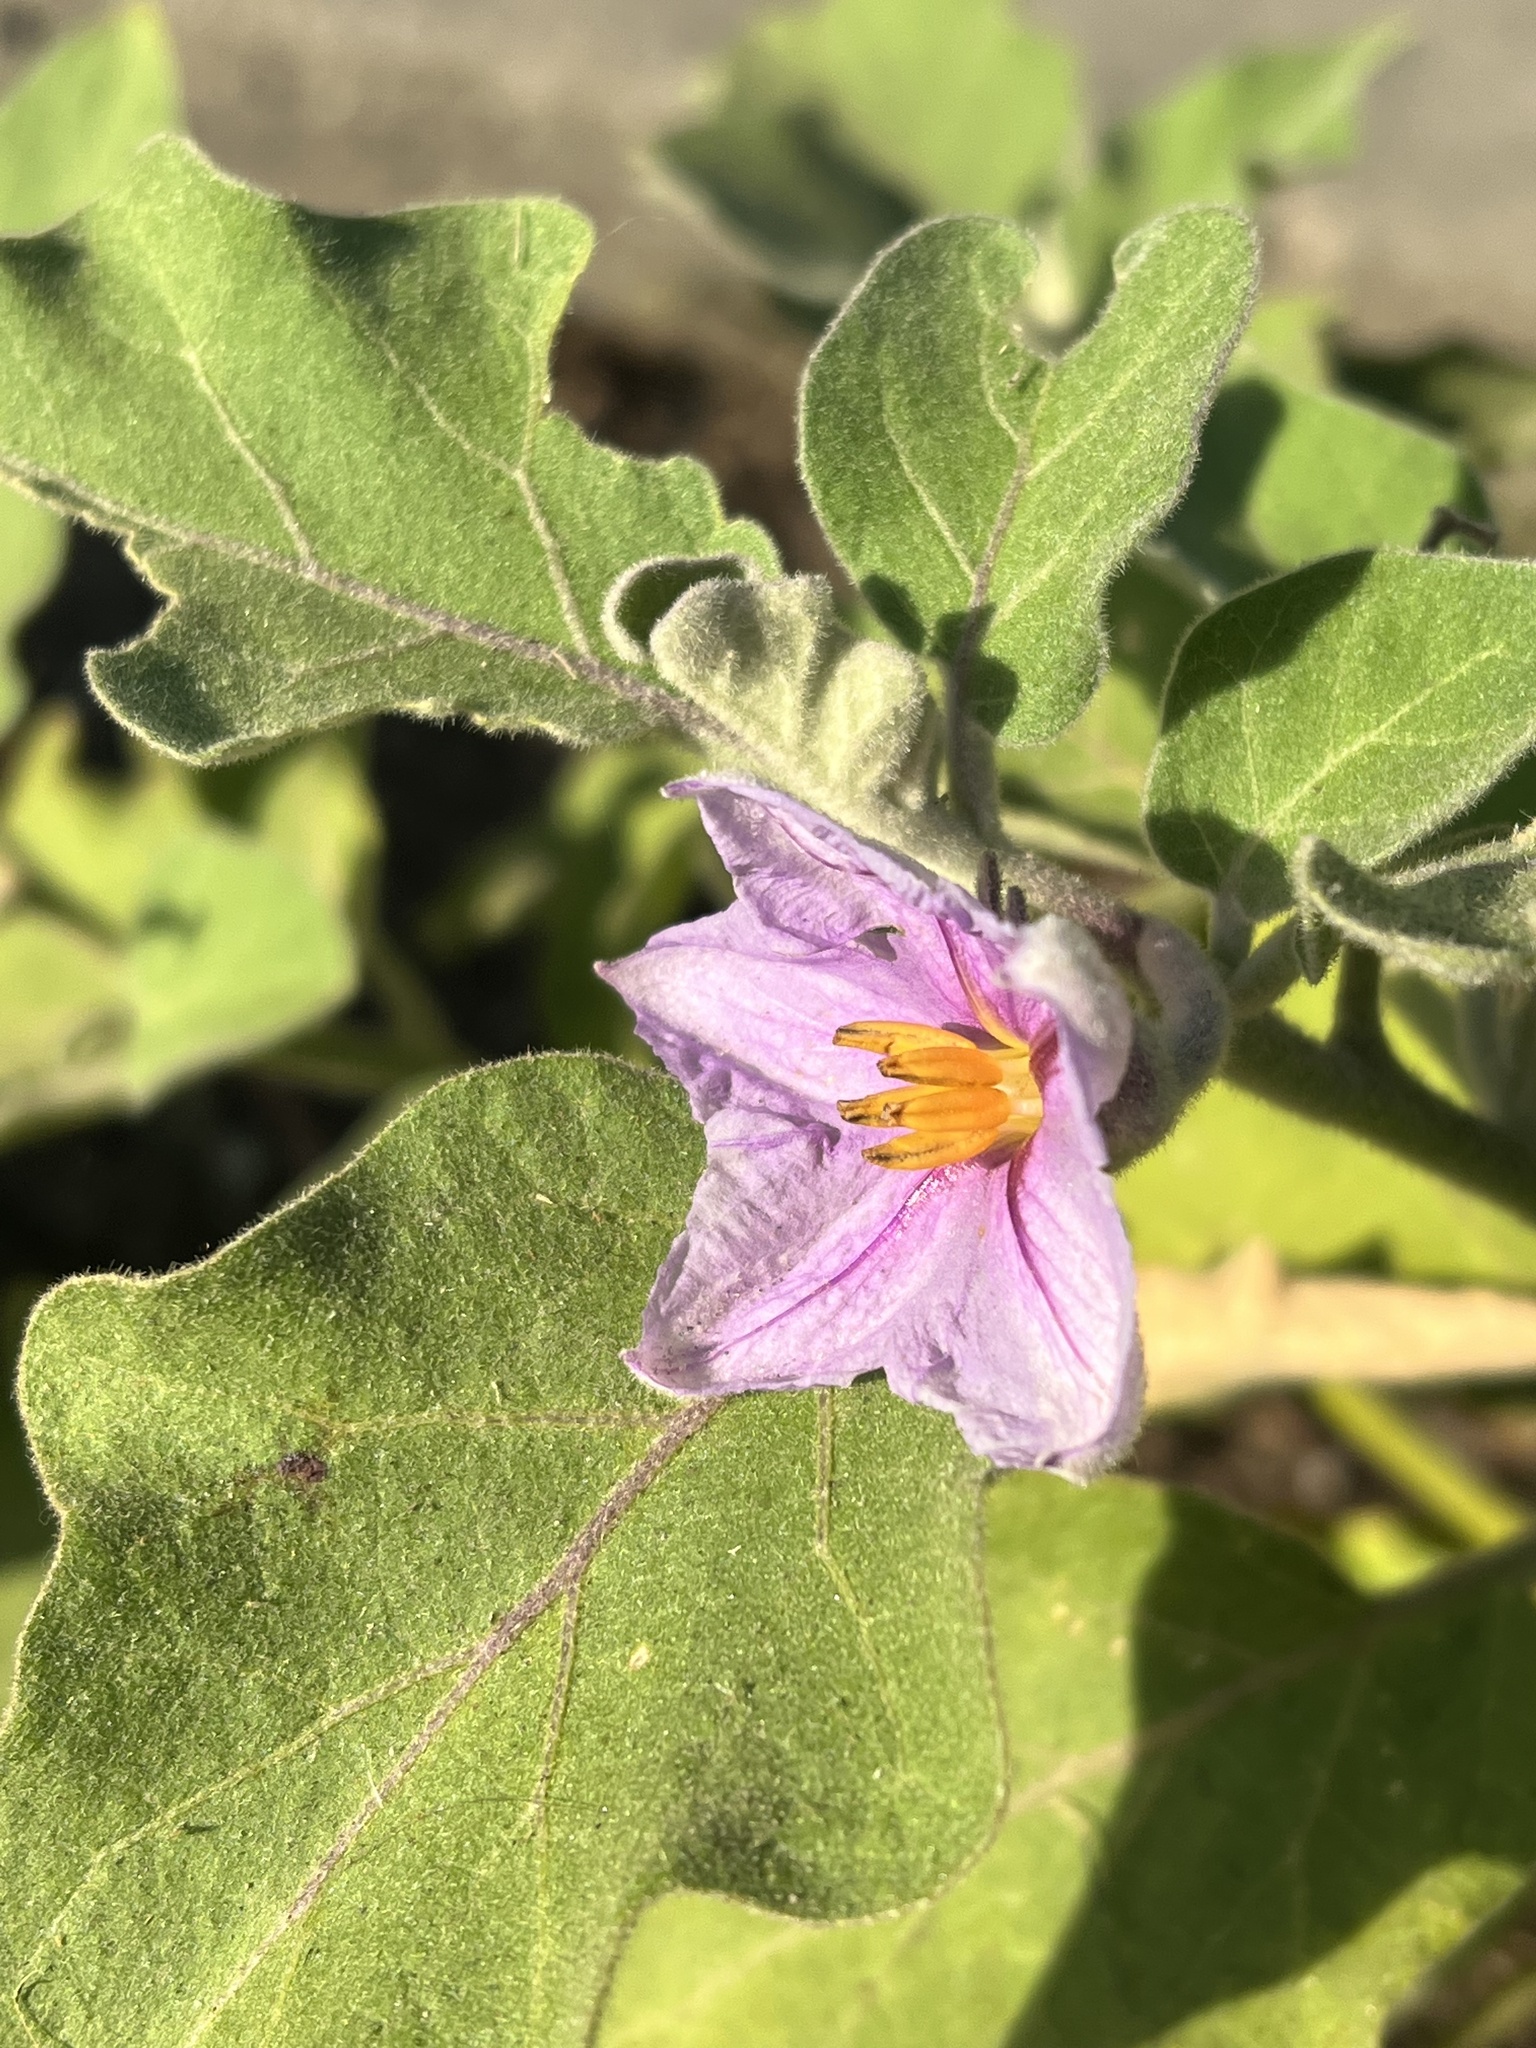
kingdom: Plantae
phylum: Tracheophyta
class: Magnoliopsida
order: Solanales
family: Solanaceae
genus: Solanum
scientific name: Solanum melongena
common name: Eggplant
